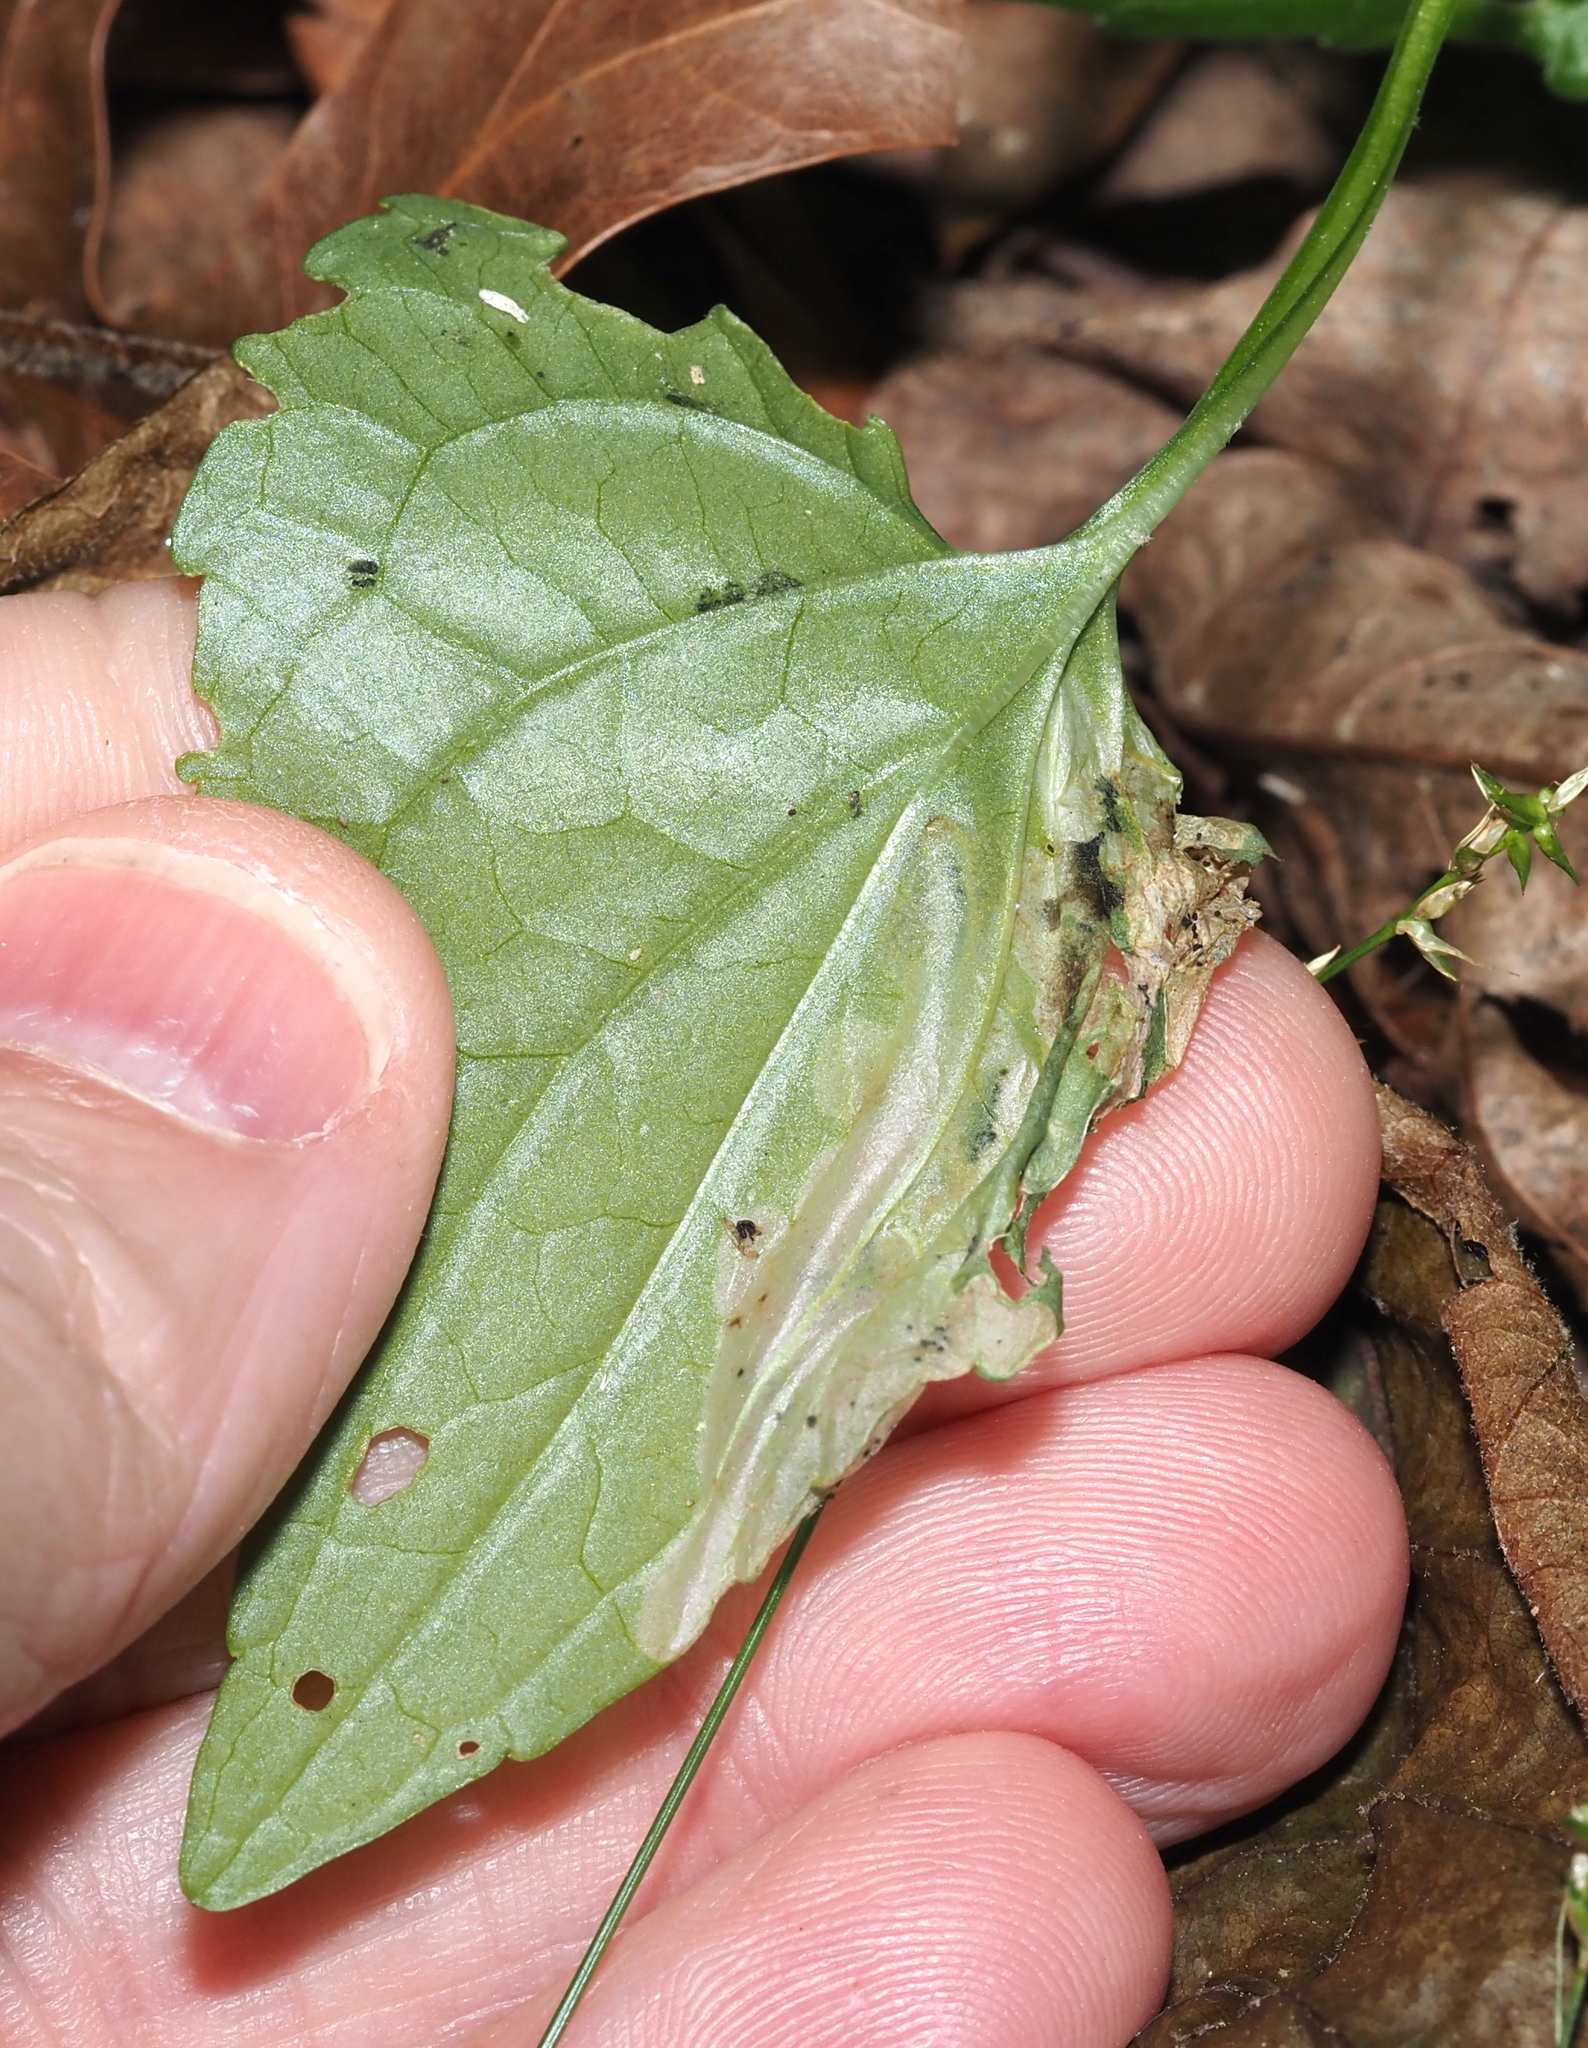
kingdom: Animalia
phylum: Arthropoda
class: Insecta
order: Hymenoptera
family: Tenthredinidae
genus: Nefusa
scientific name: Nefusa ambigua
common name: Violet leafmining sawfly
